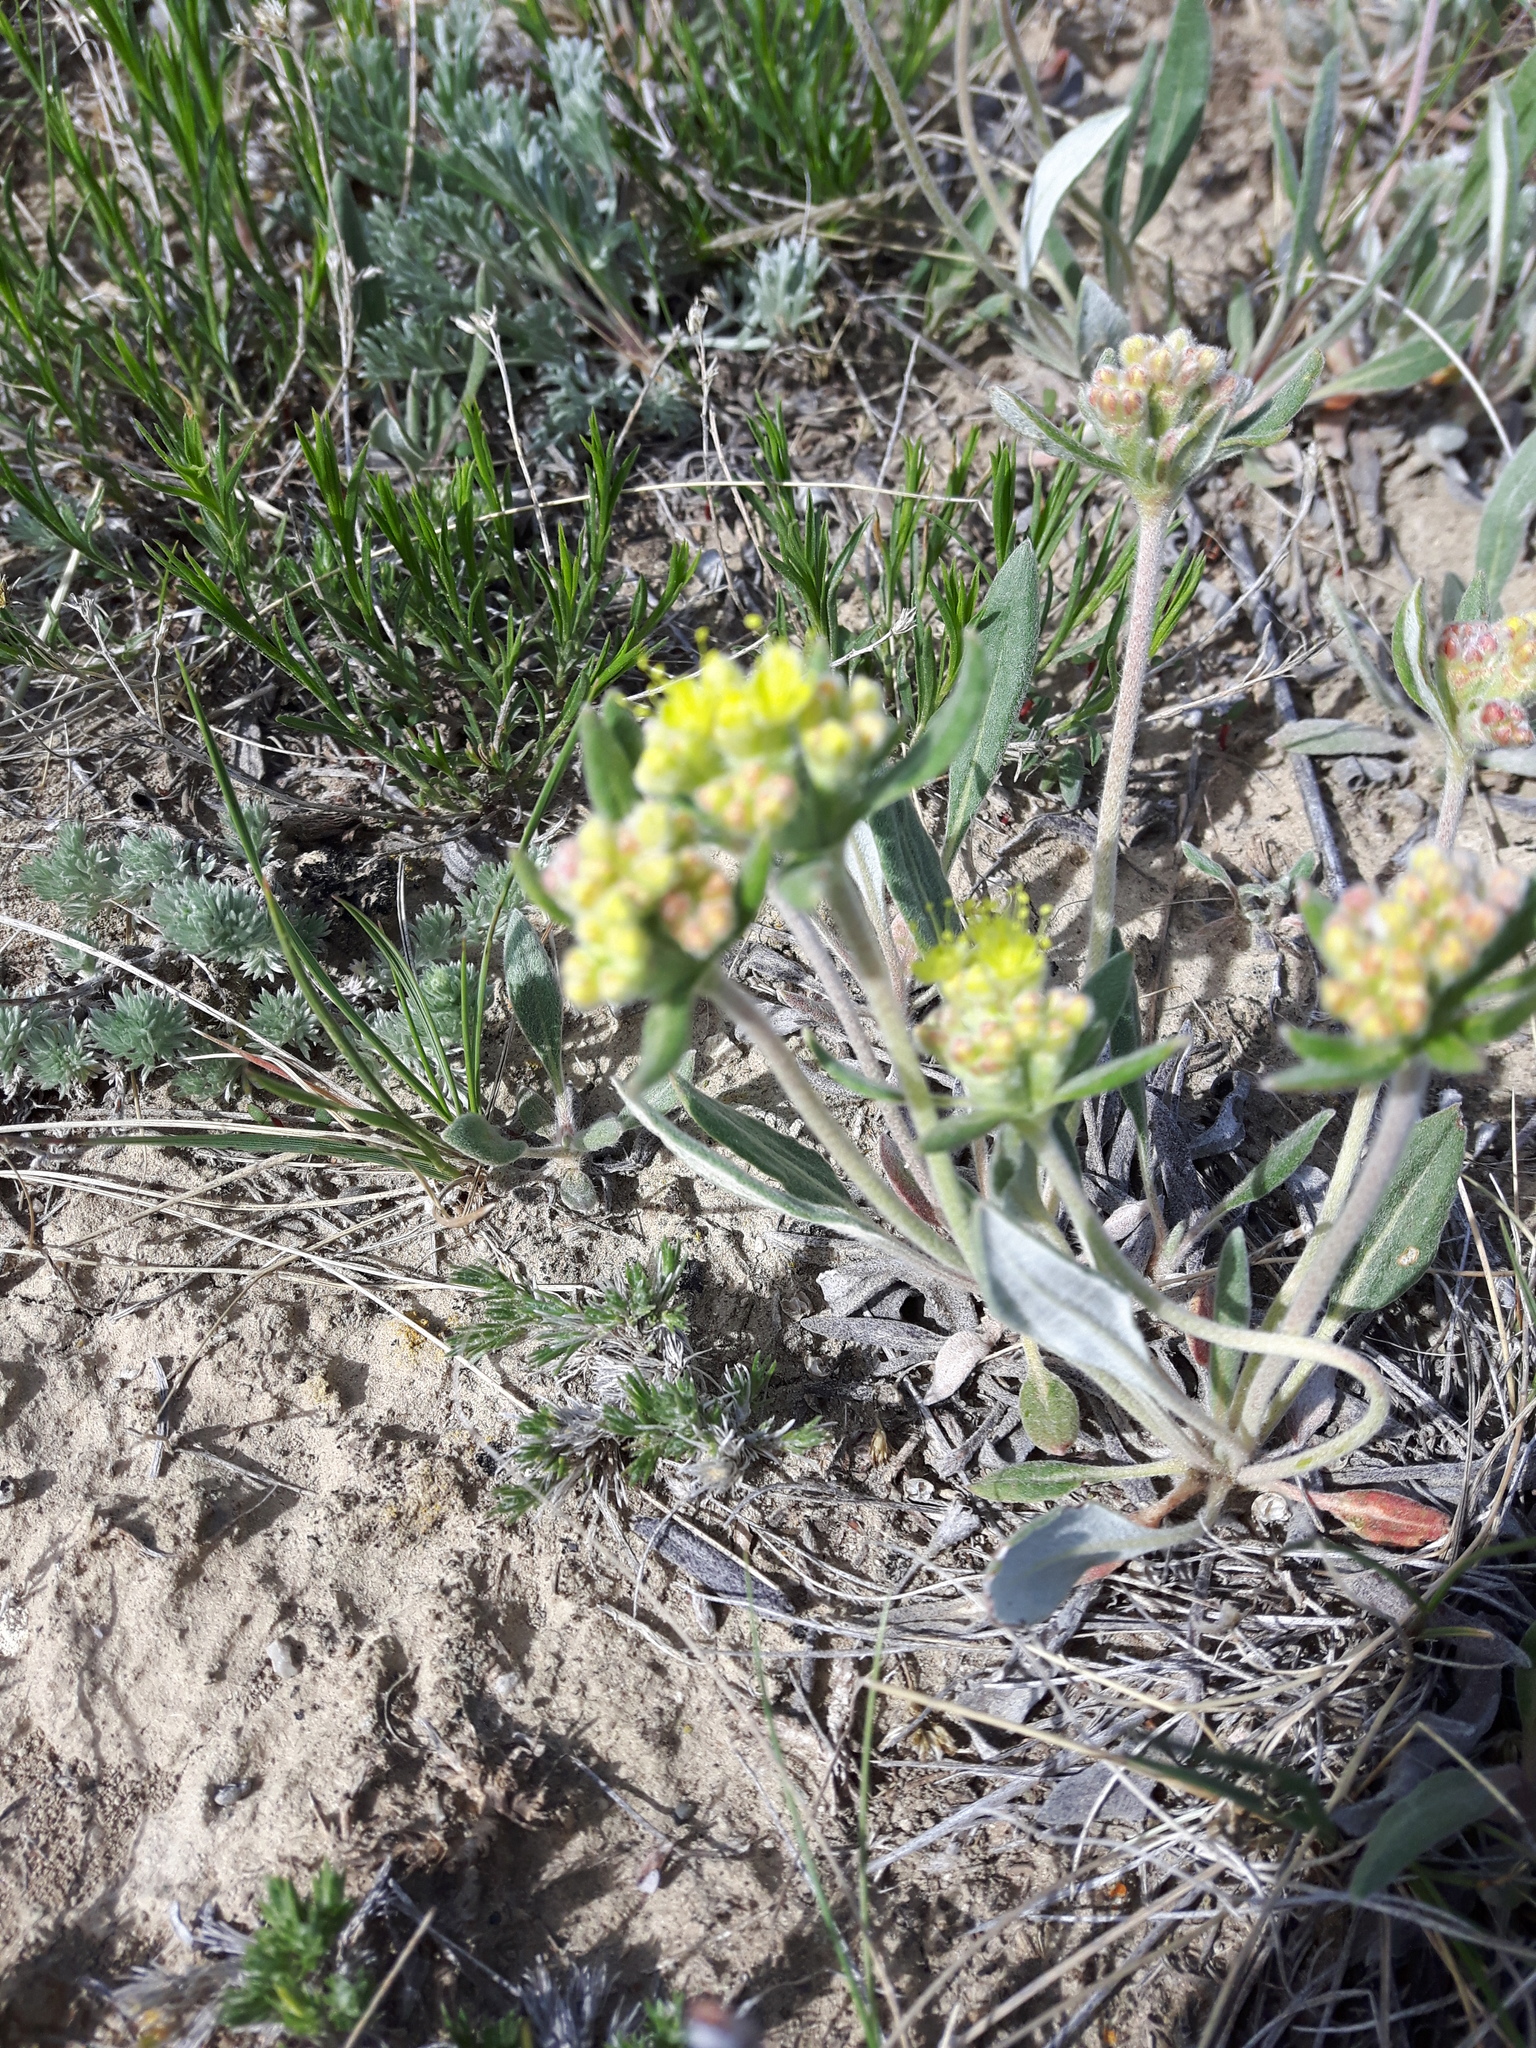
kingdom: Plantae
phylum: Tracheophyta
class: Magnoliopsida
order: Caryophyllales
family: Polygonaceae
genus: Eriogonum
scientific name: Eriogonum flavum
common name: Alpine golden wild buckwheat
